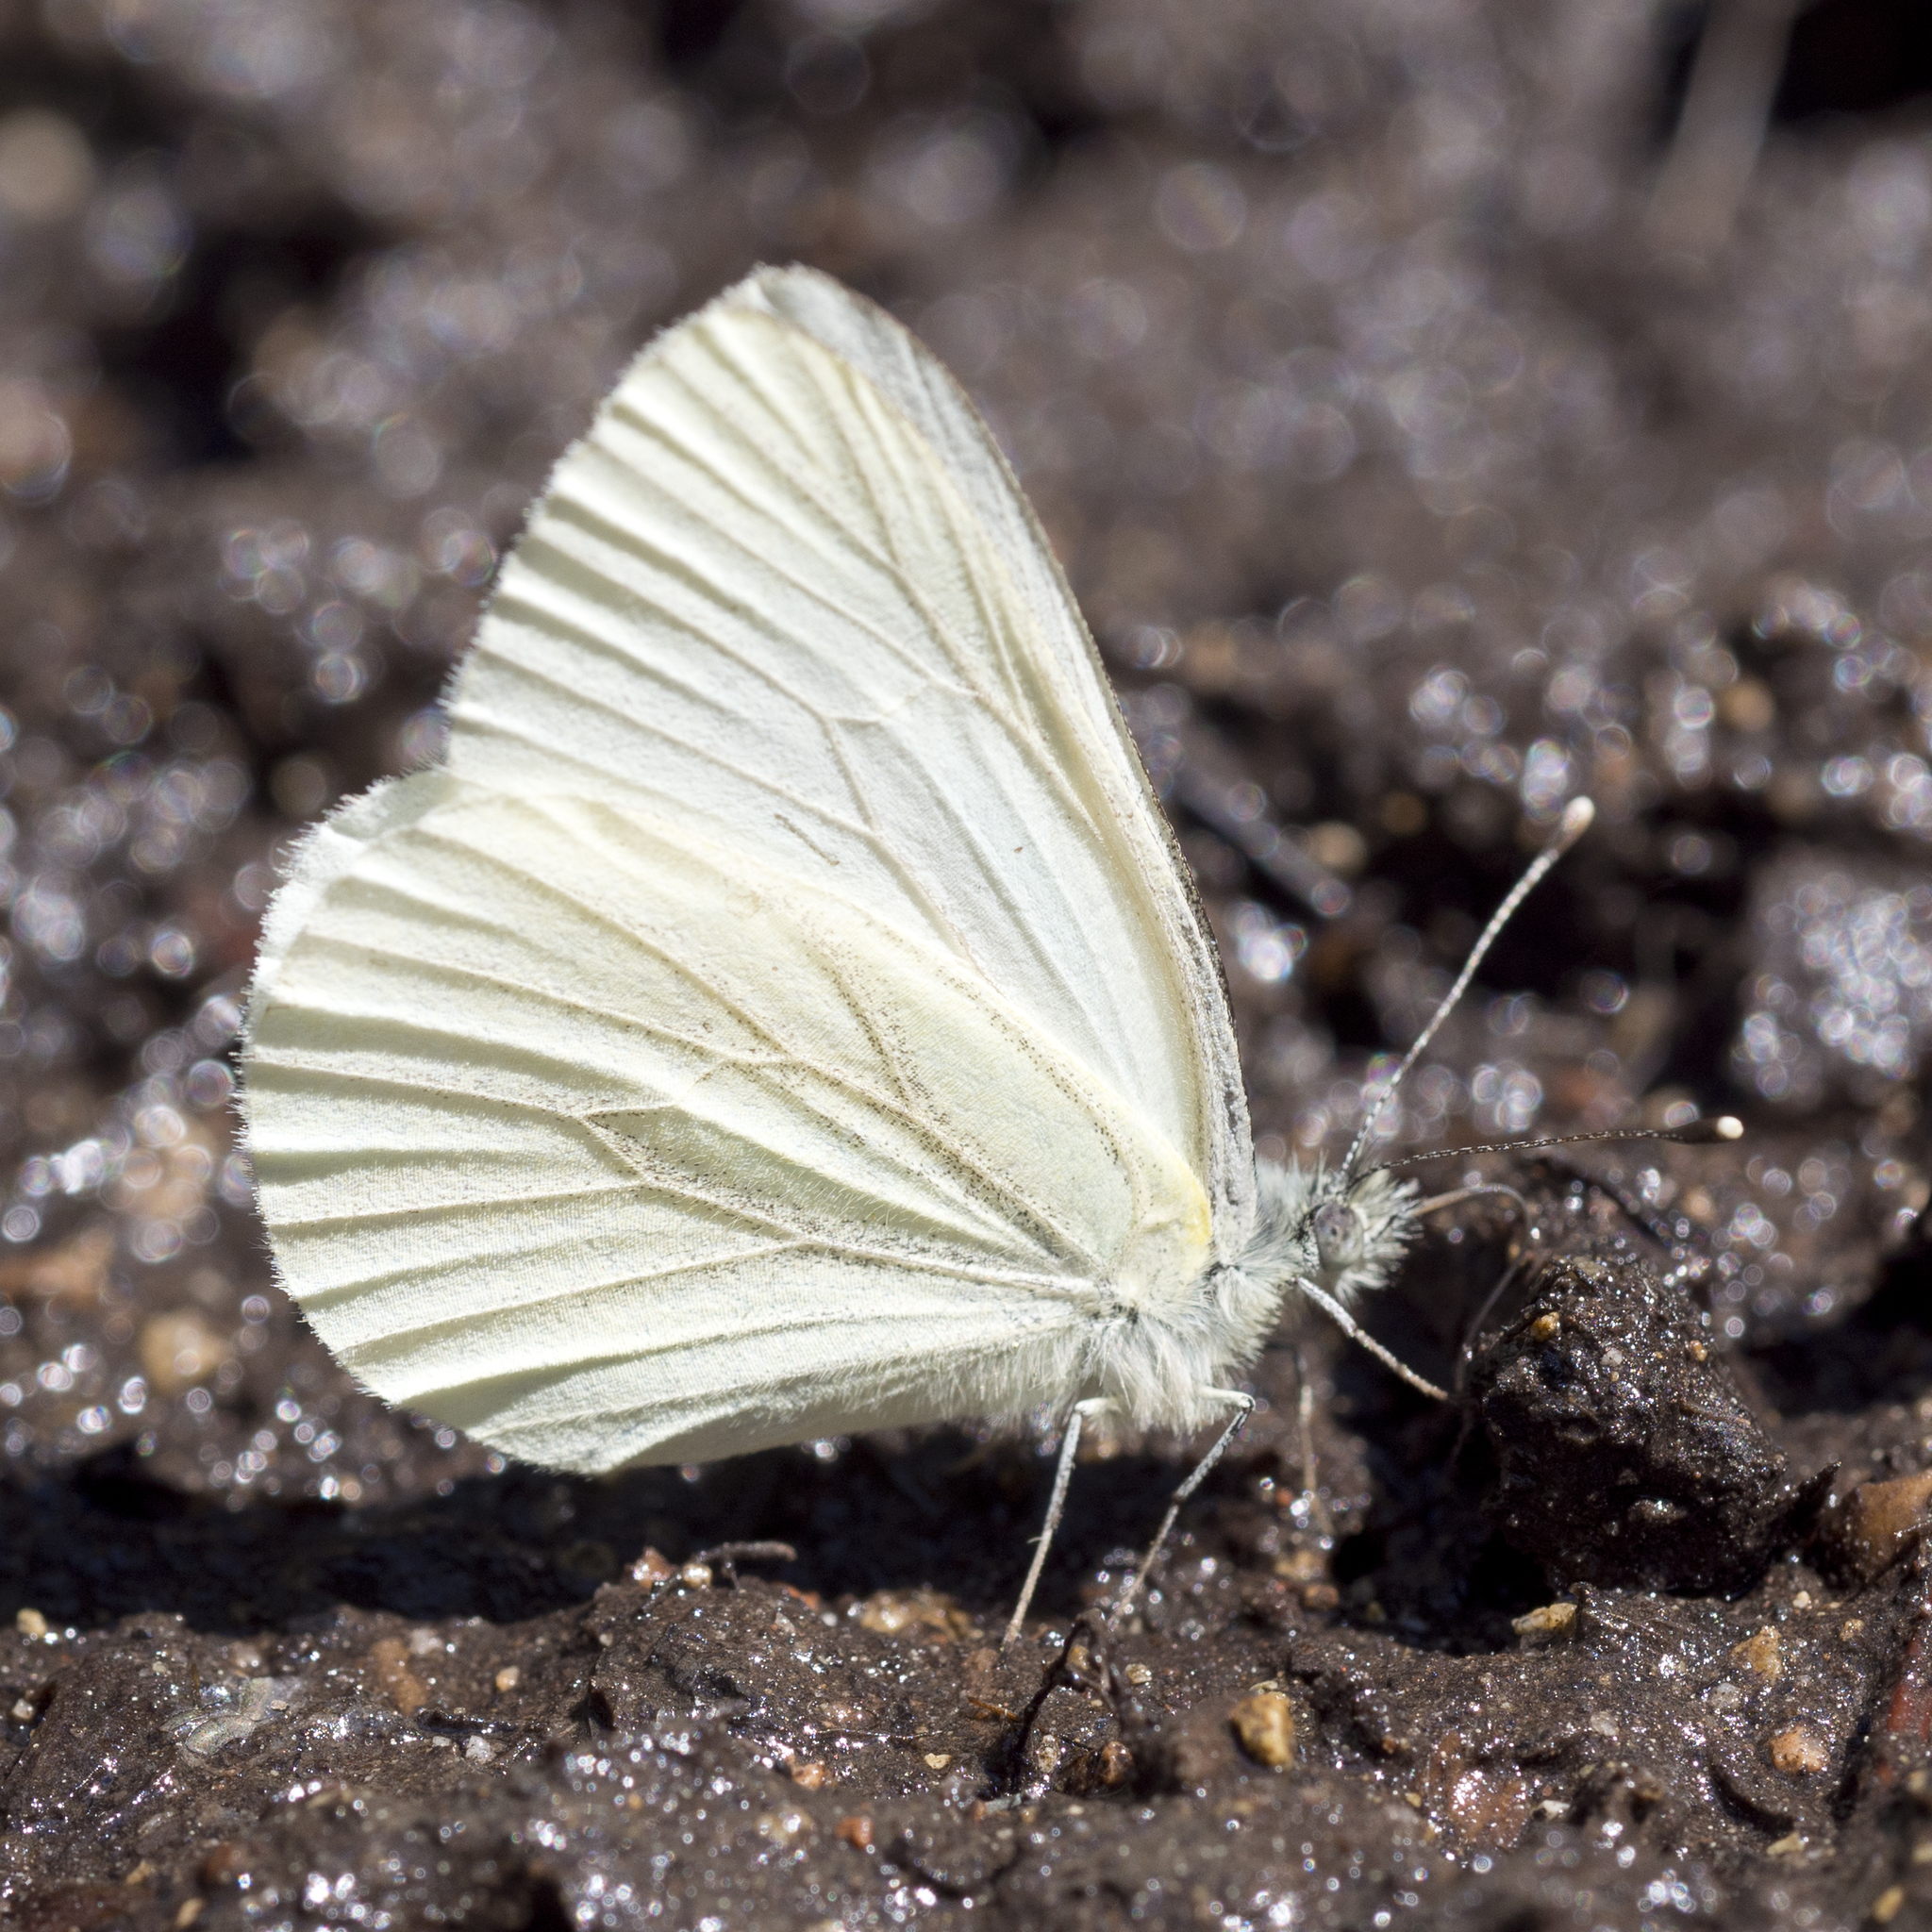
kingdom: Animalia
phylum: Arthropoda
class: Insecta
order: Lepidoptera
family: Pieridae
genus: Pieris
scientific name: Pieris marginalis
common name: Margined white
